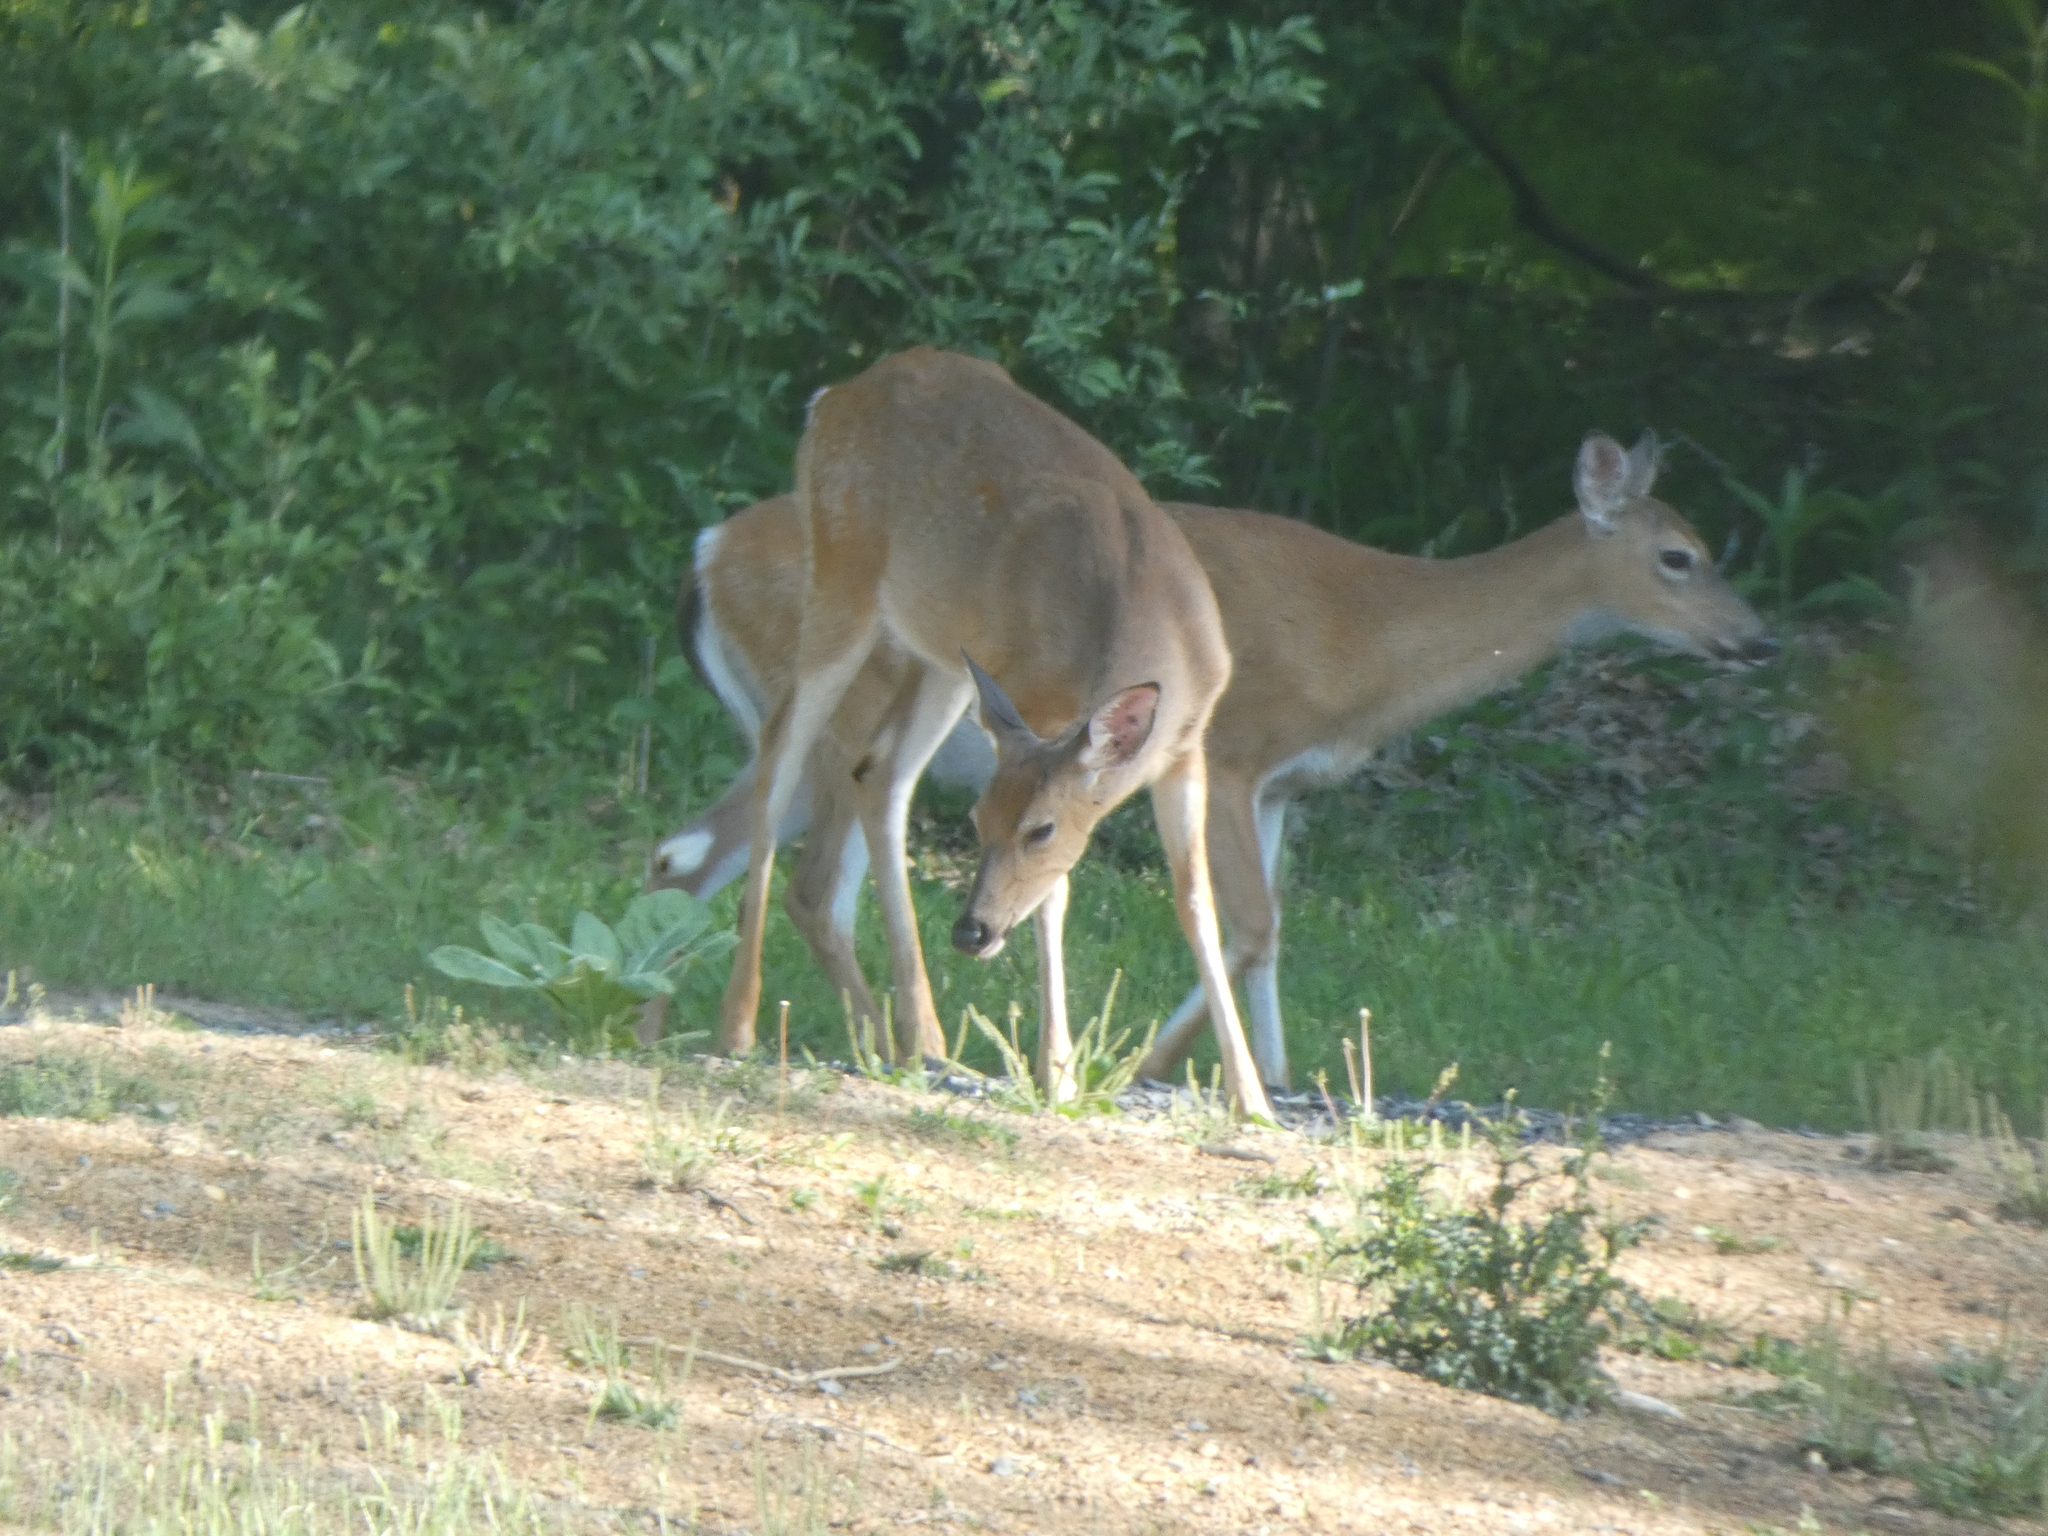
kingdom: Animalia
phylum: Chordata
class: Mammalia
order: Artiodactyla
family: Cervidae
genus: Odocoileus
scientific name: Odocoileus virginianus
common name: White-tailed deer
